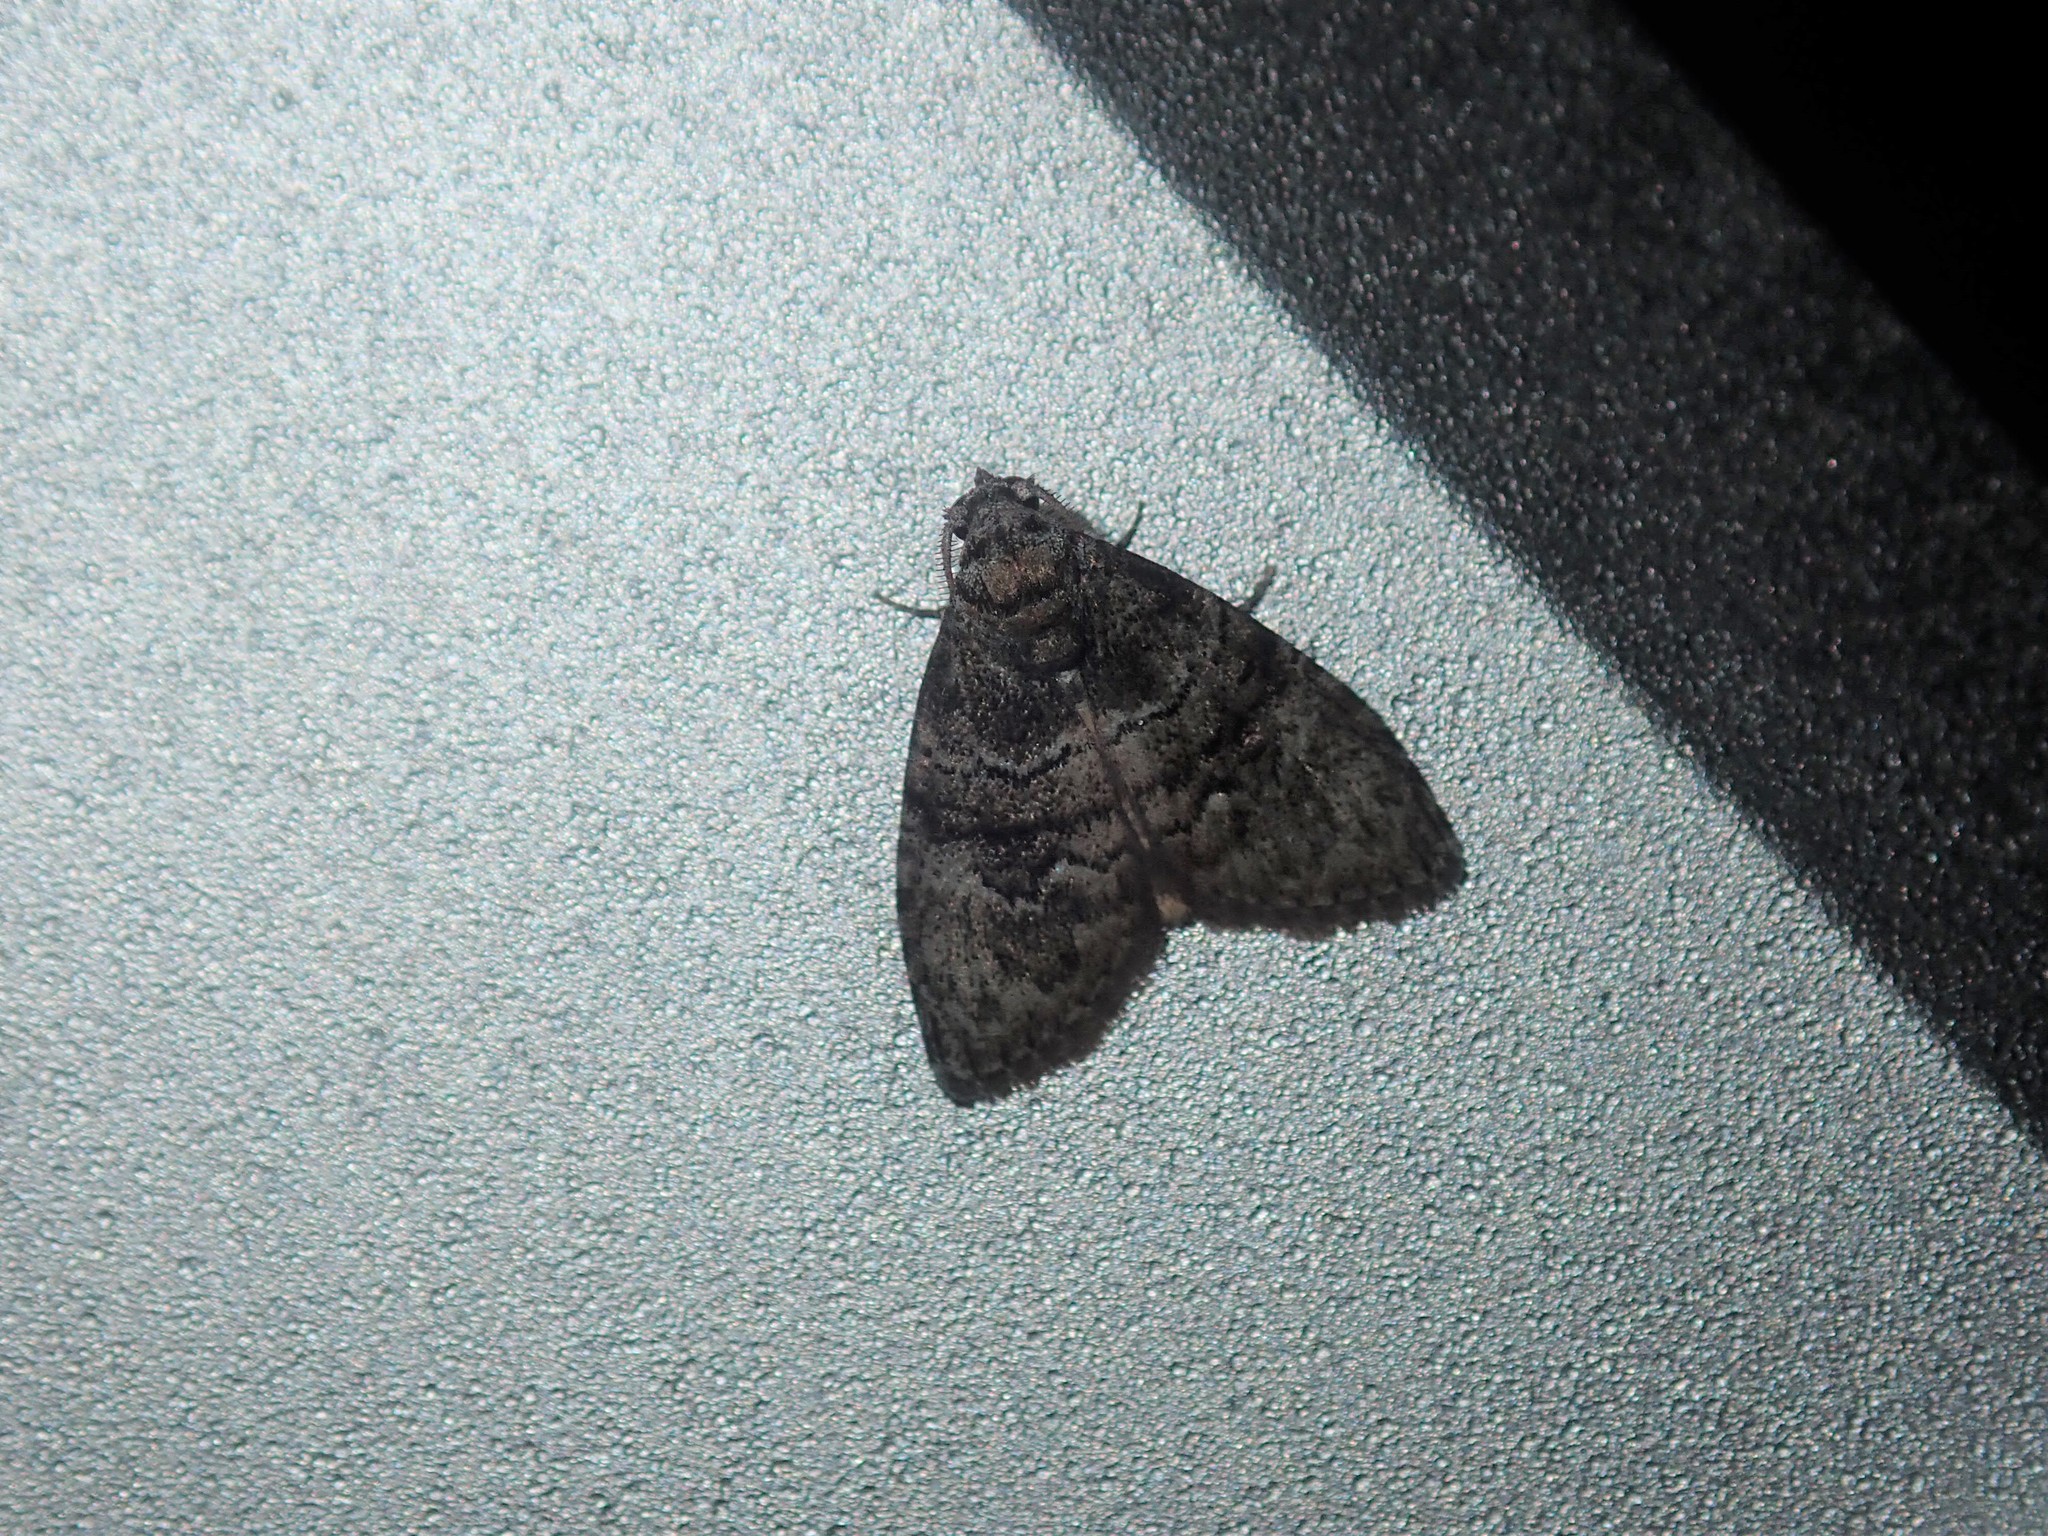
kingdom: Animalia
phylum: Arthropoda
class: Insecta
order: Lepidoptera
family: Nolidae
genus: Uraba
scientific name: Uraba lugens
